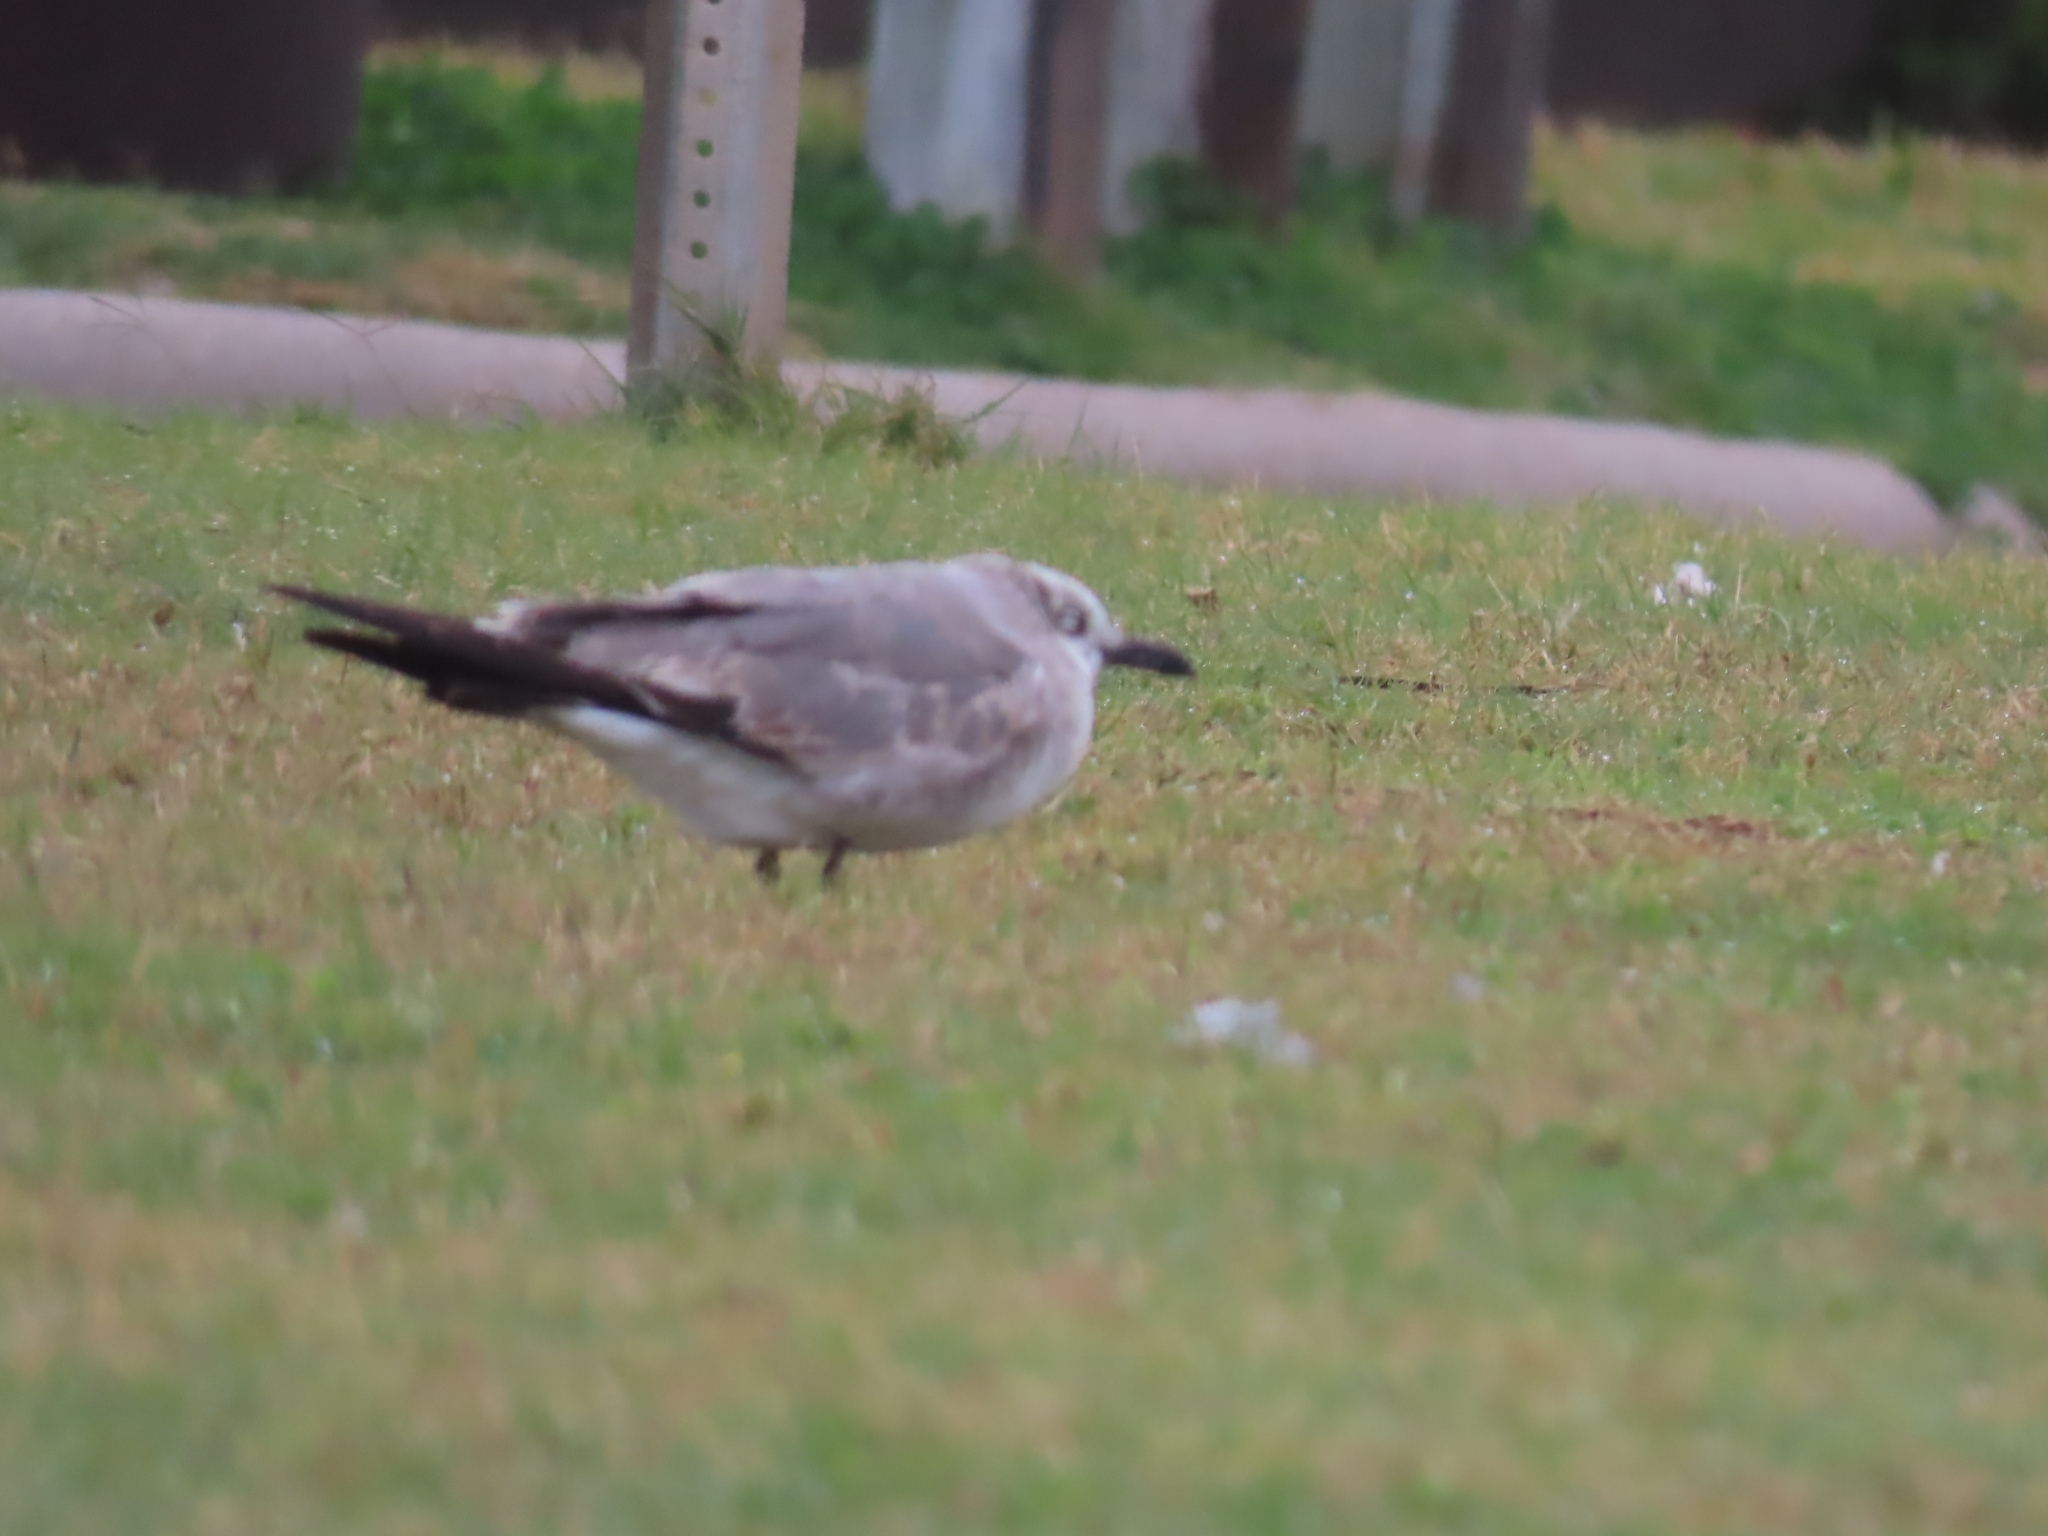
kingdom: Animalia
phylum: Chordata
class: Aves
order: Charadriiformes
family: Laridae
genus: Leucophaeus
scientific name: Leucophaeus atricilla
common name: Laughing gull
